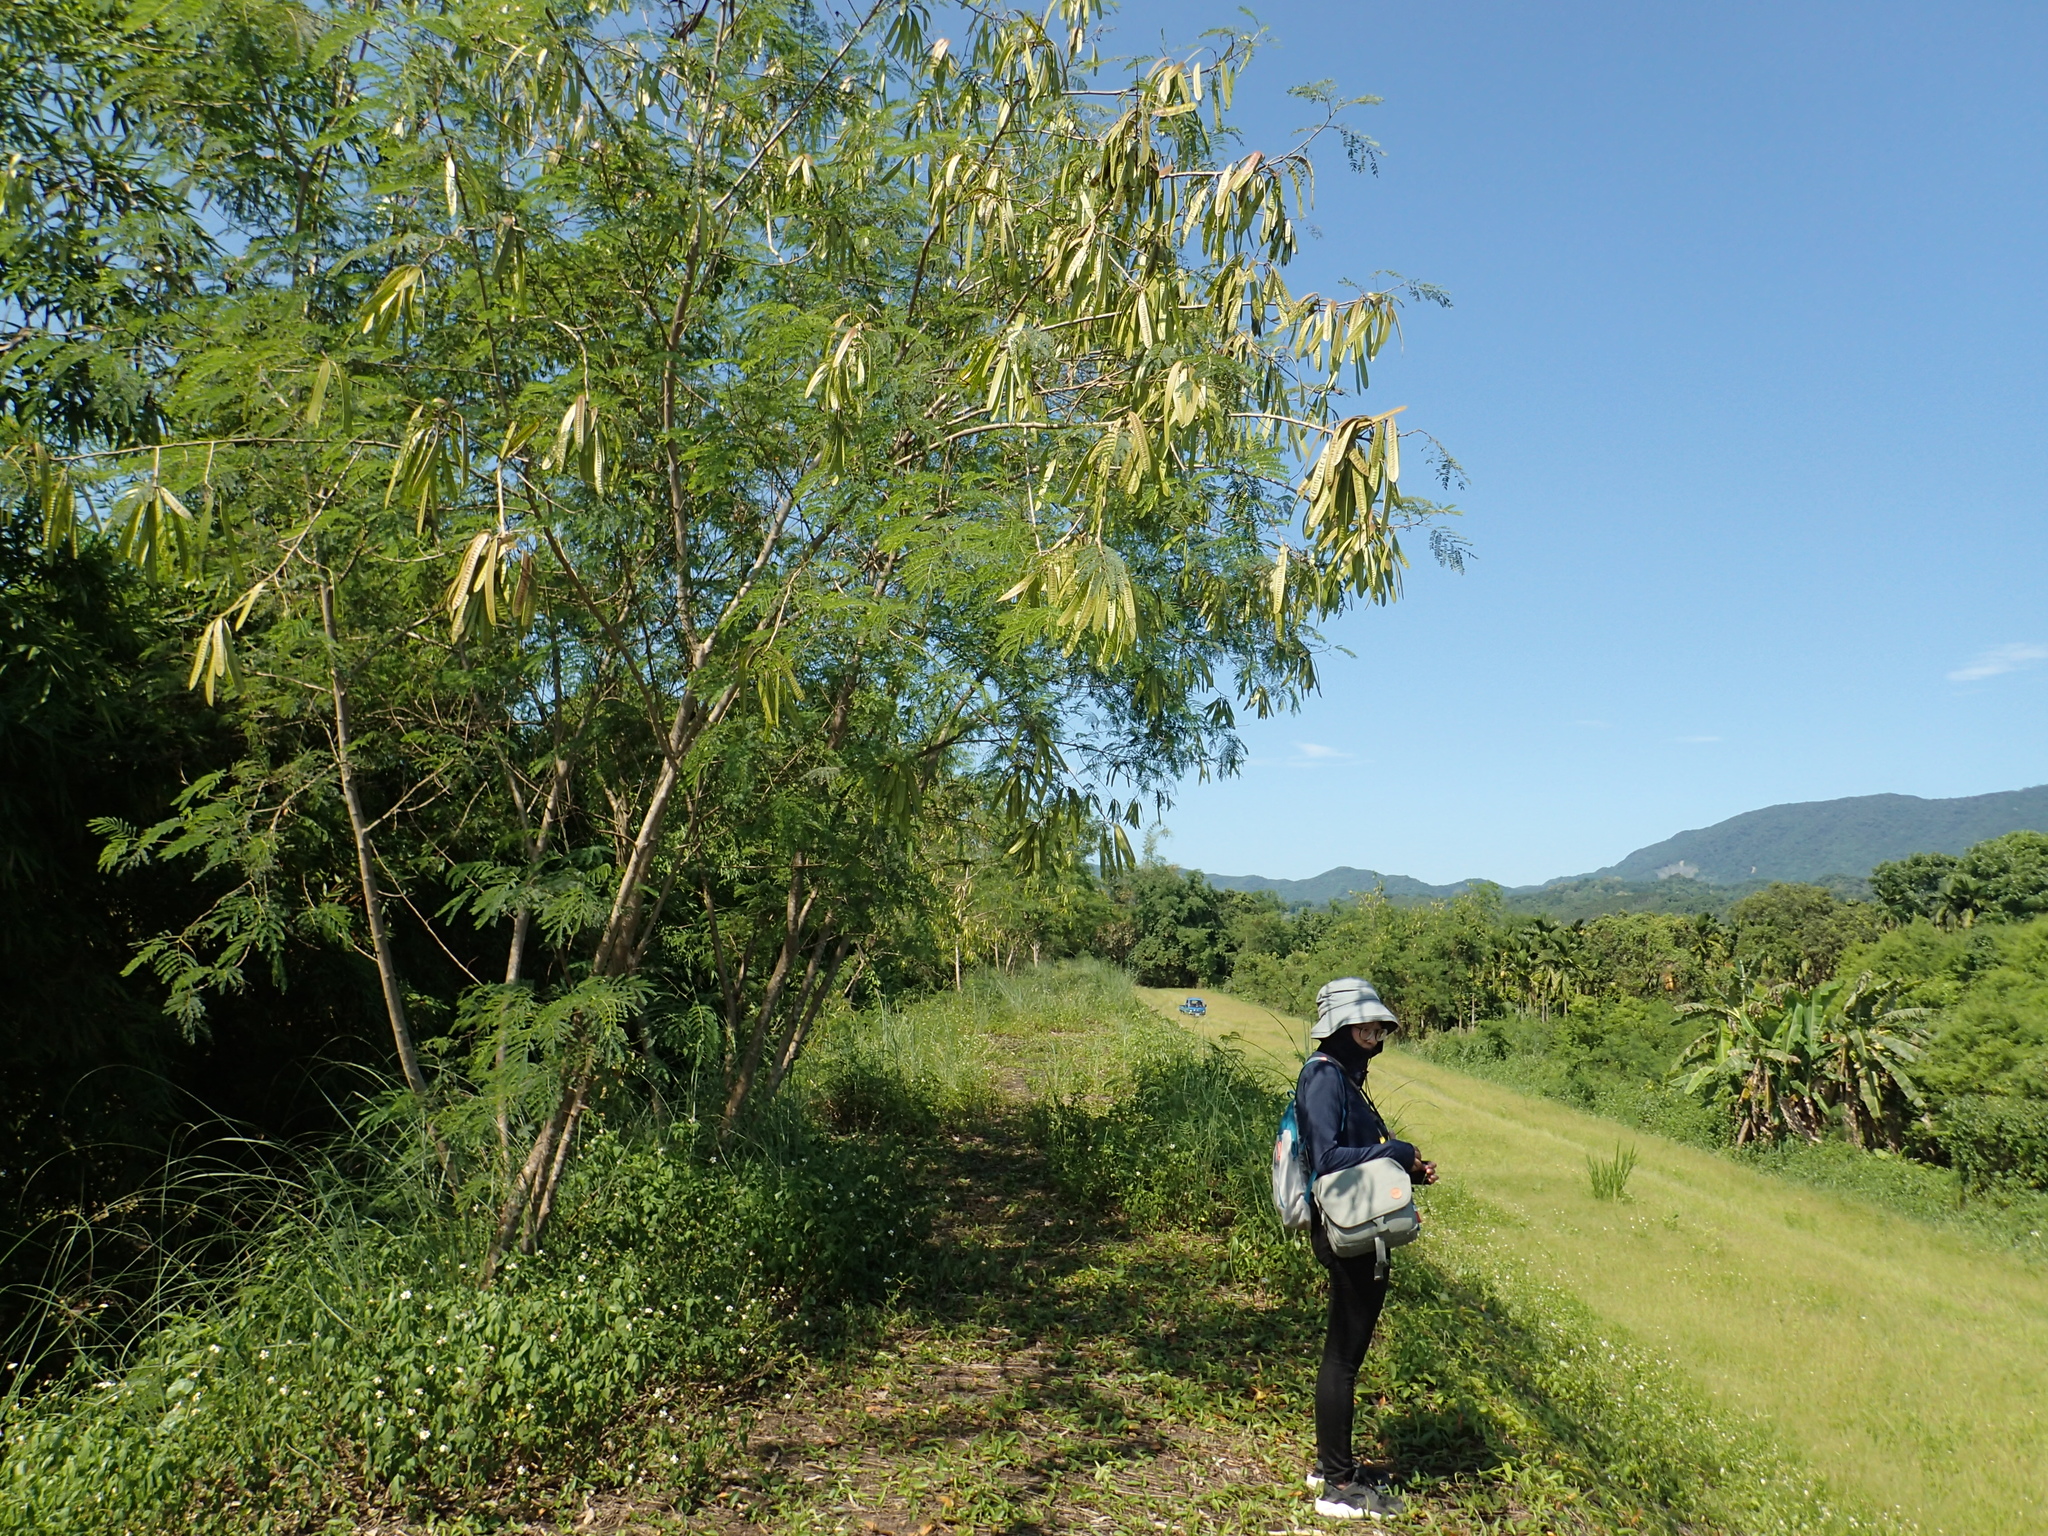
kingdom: Plantae
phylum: Tracheophyta
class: Magnoliopsida
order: Fabales
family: Fabaceae
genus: Leucaena
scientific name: Leucaena leucocephala
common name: White leadtree
